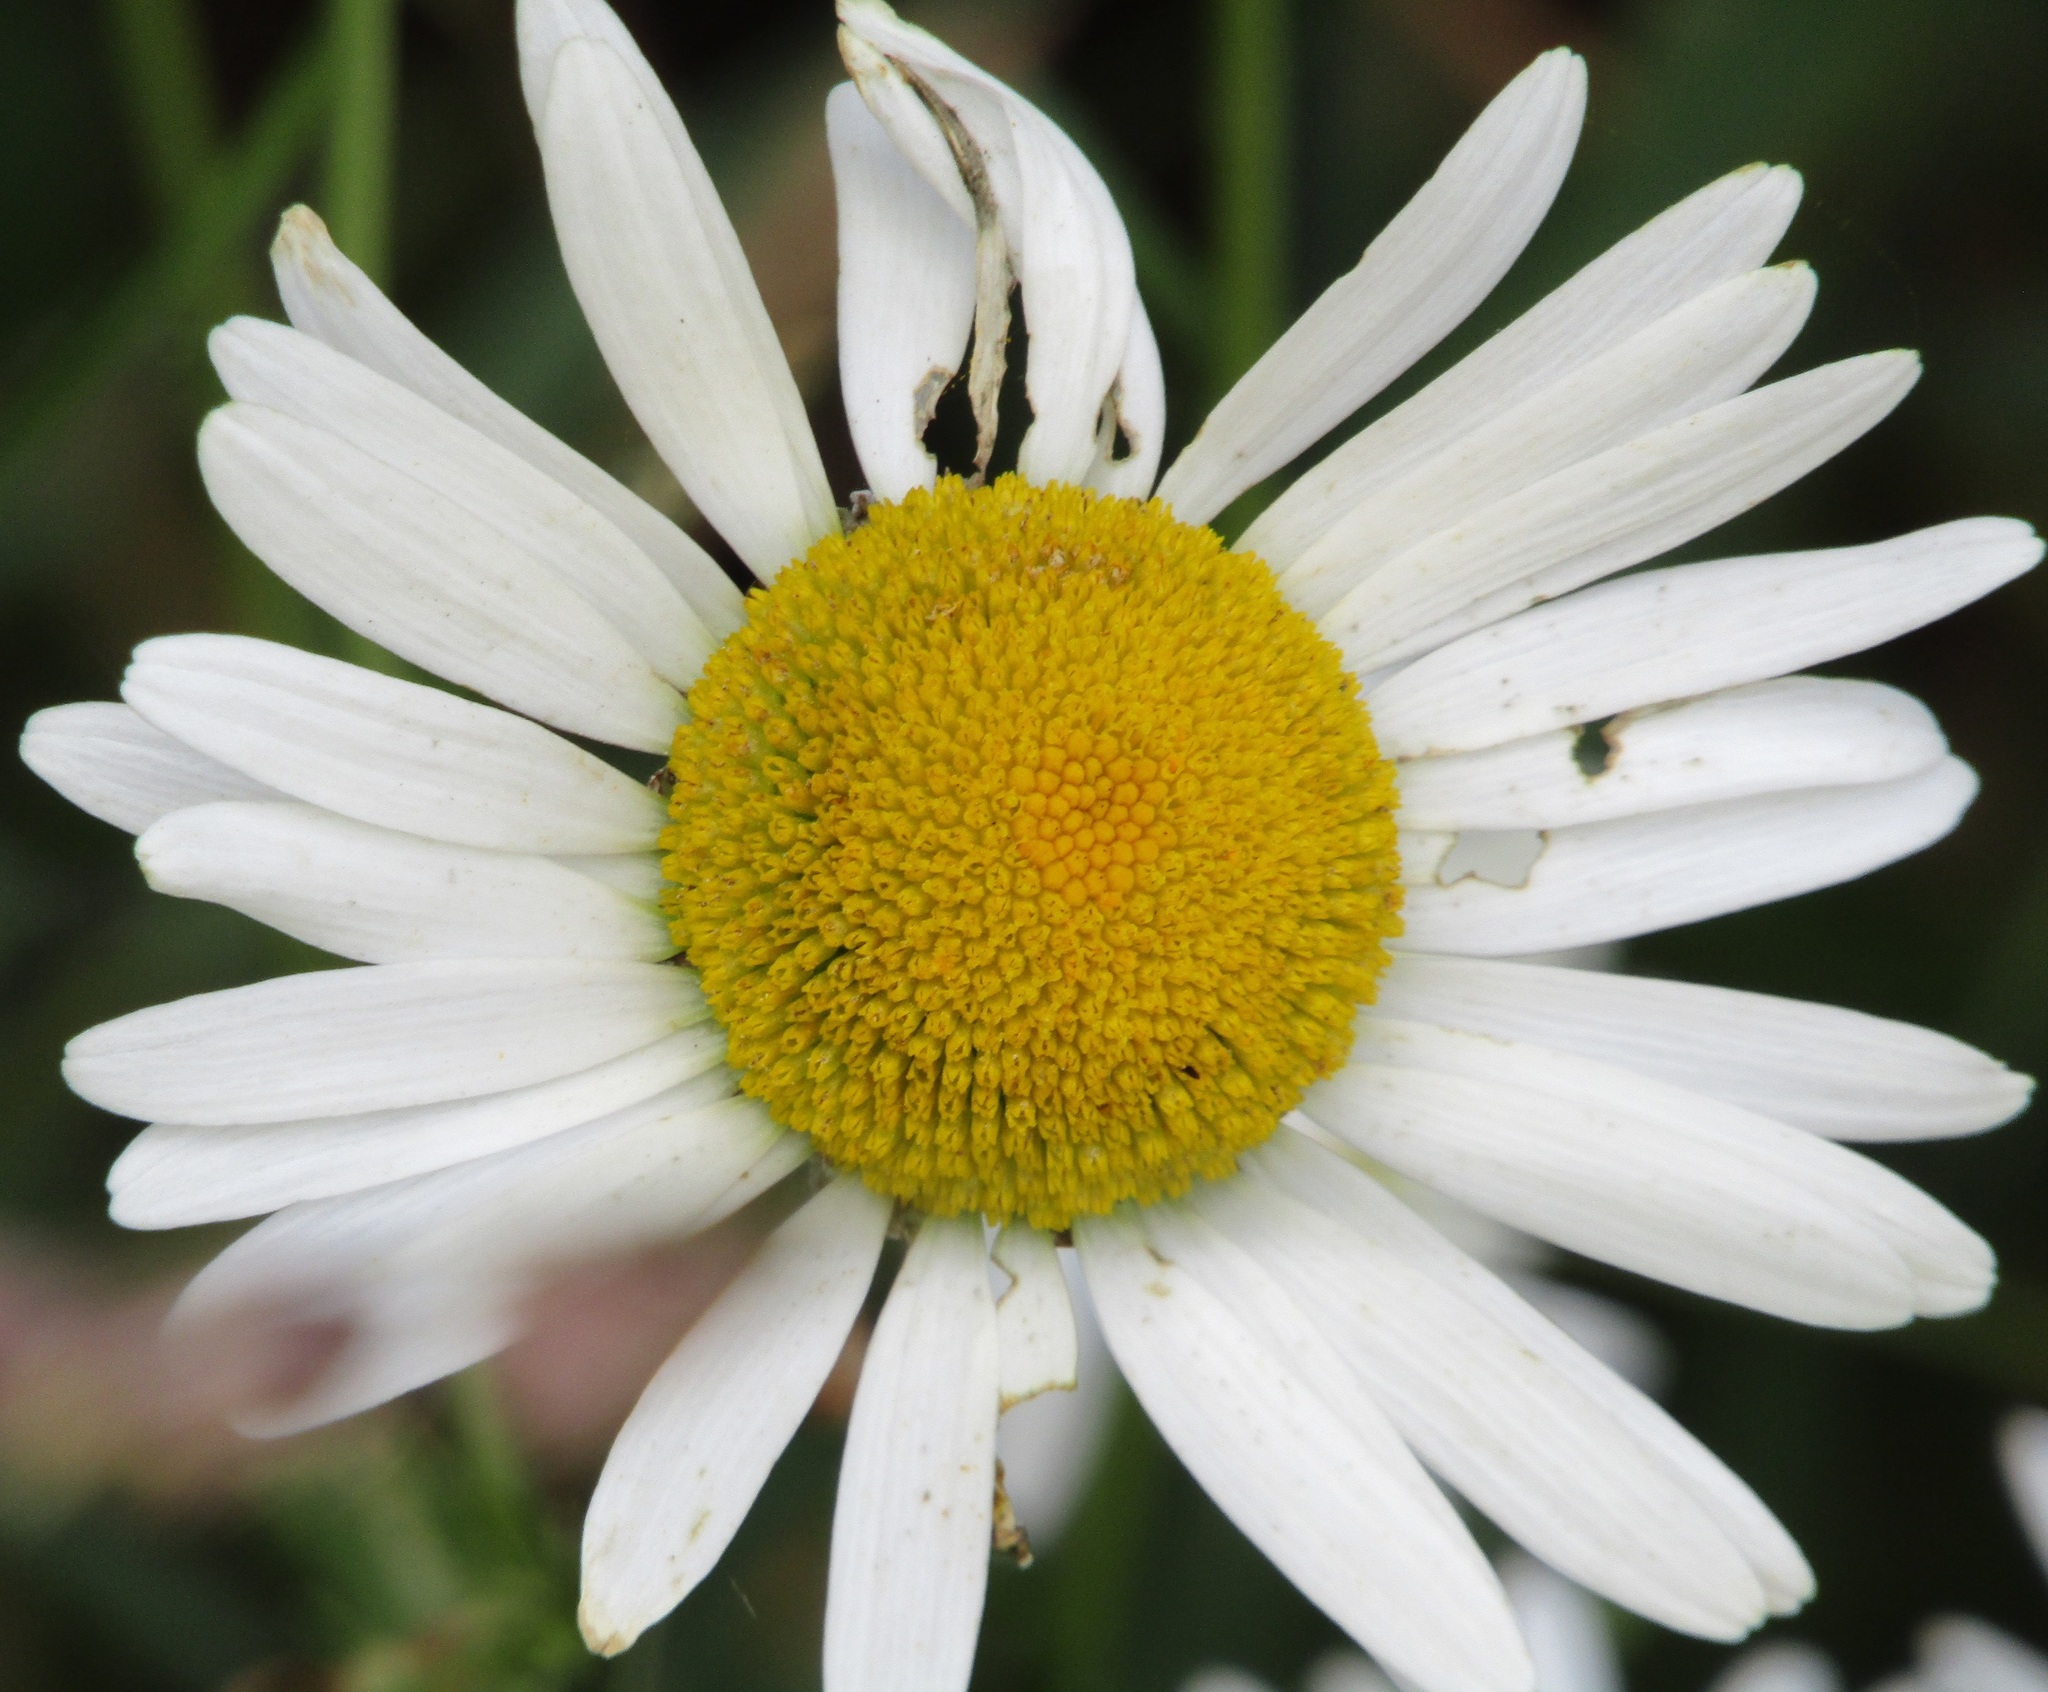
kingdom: Plantae
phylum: Tracheophyta
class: Magnoliopsida
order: Asterales
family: Asteraceae
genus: Leucanthemum
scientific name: Leucanthemum vulgare
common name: Oxeye daisy
